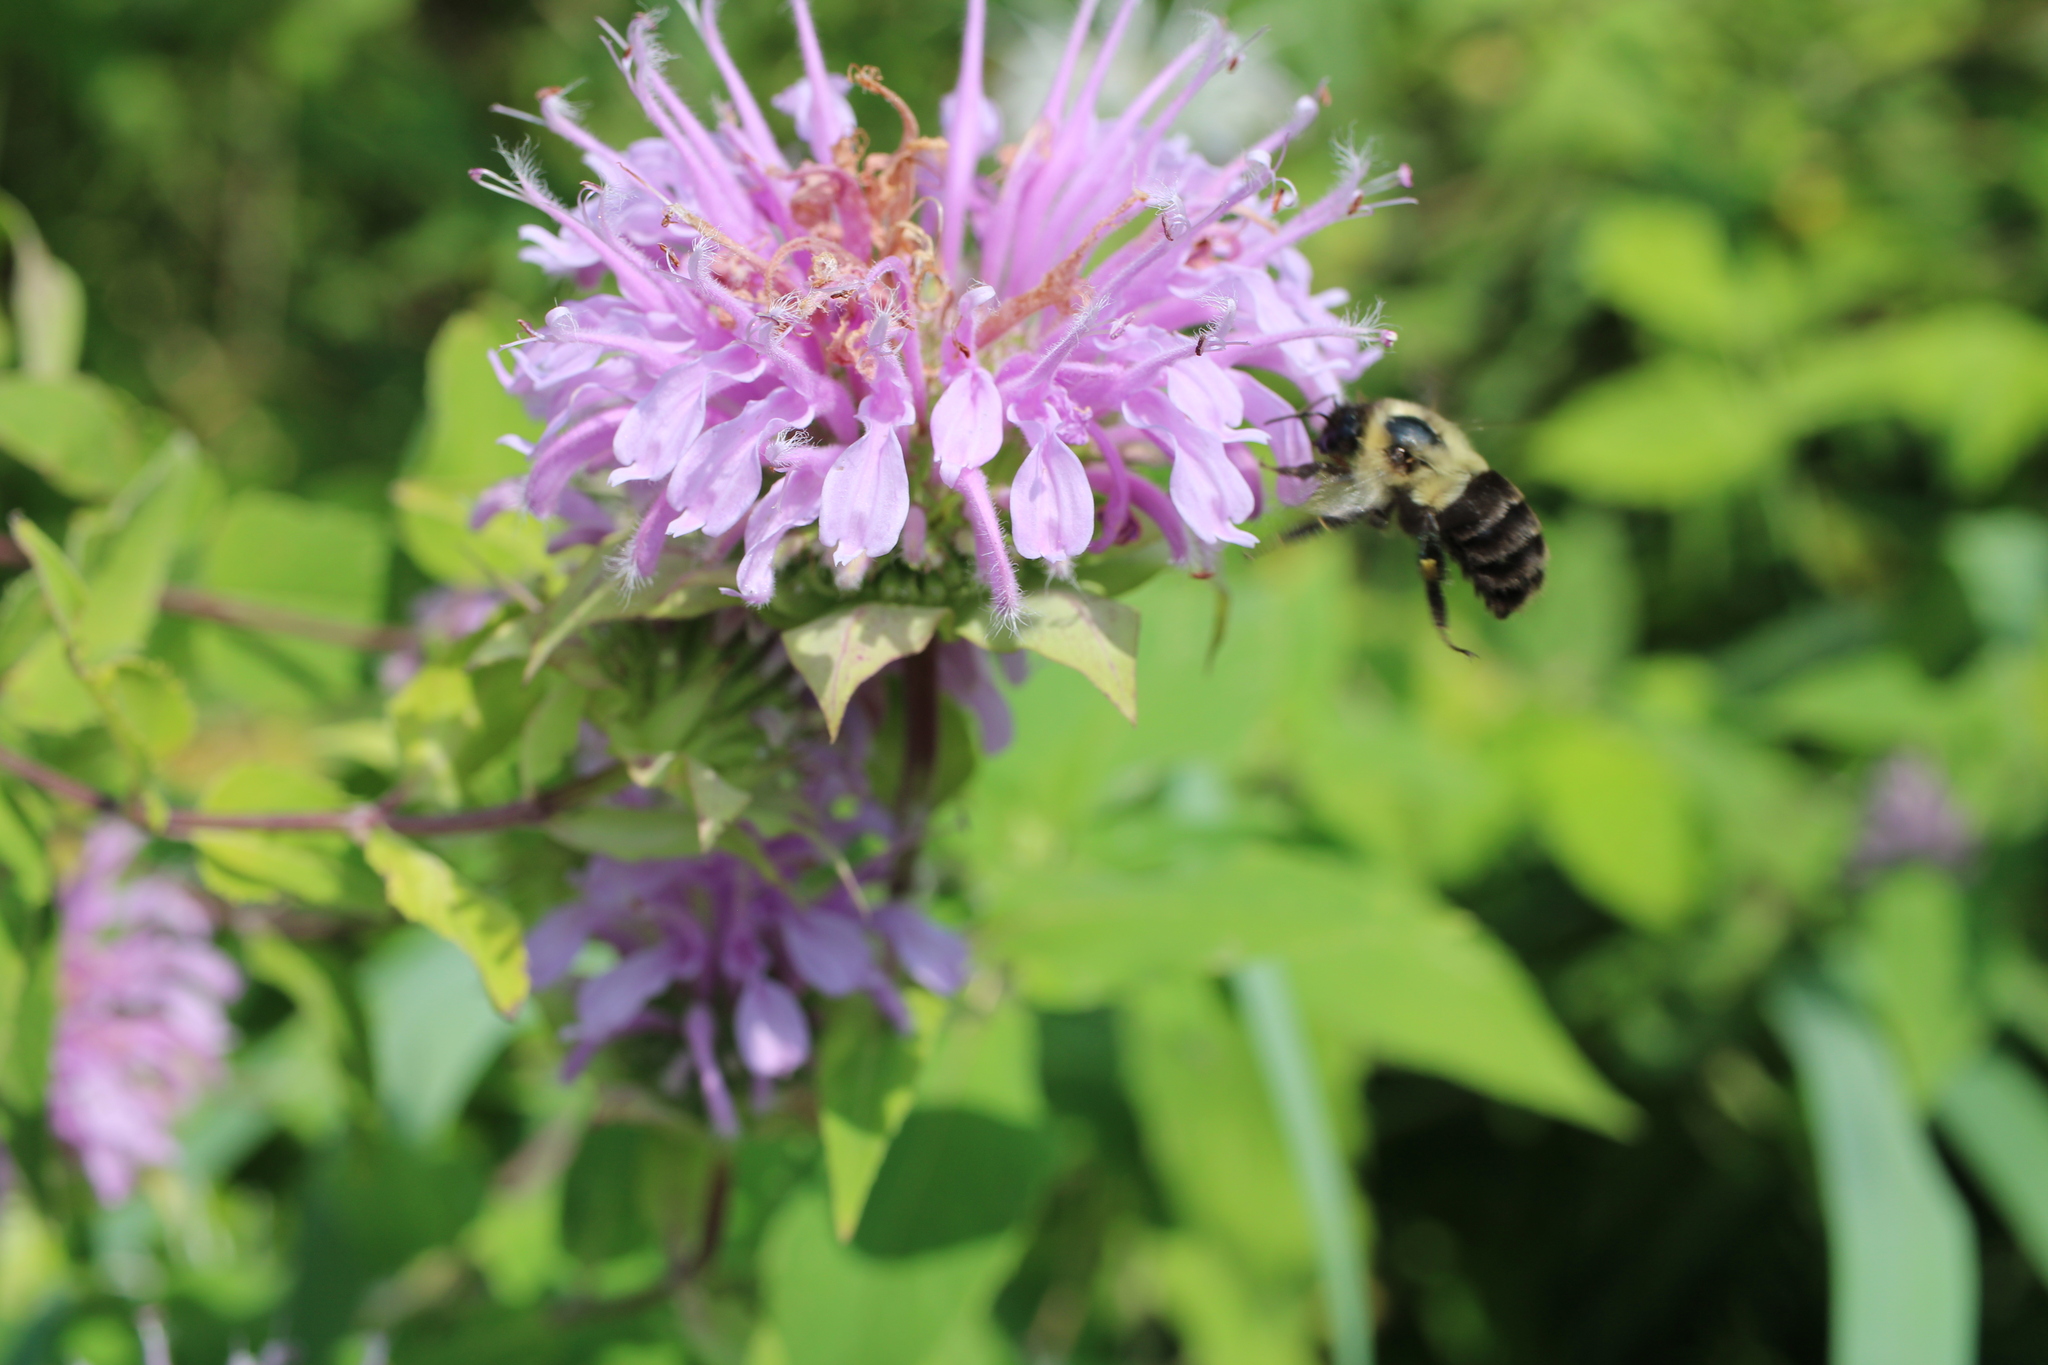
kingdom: Animalia
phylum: Arthropoda
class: Insecta
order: Hymenoptera
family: Apidae
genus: Bombus
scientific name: Bombus impatiens
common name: Common eastern bumble bee
